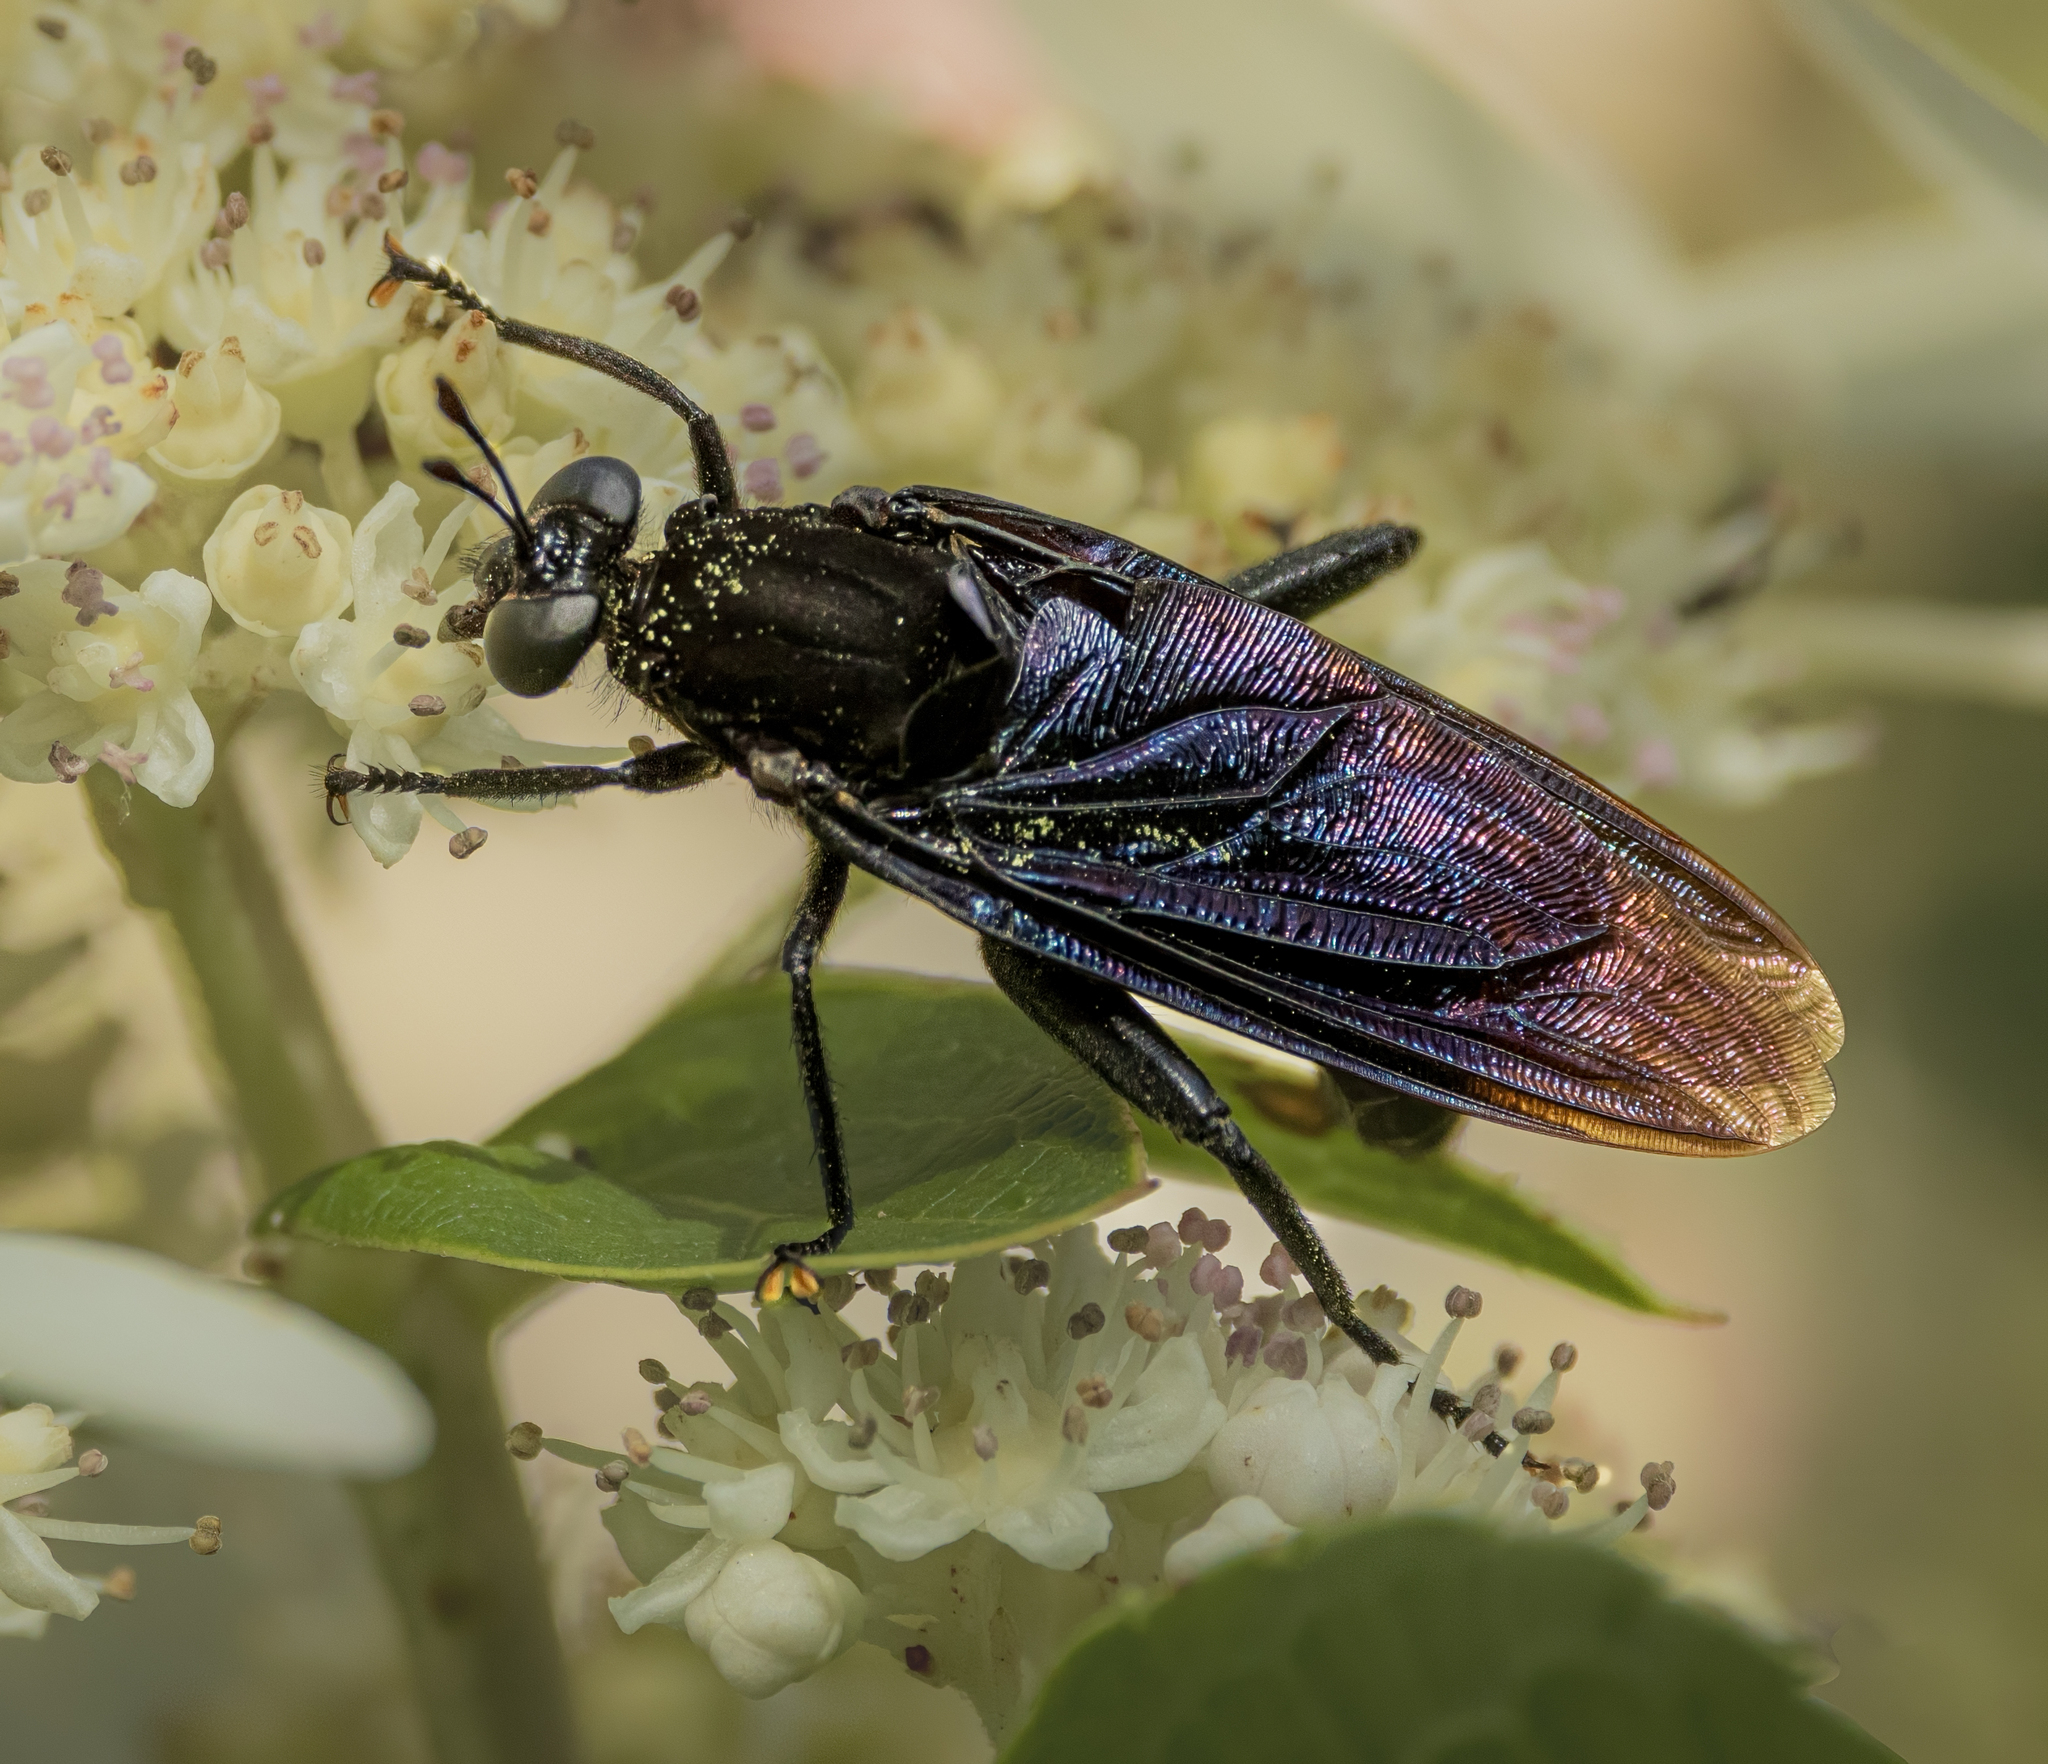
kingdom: Animalia
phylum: Arthropoda
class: Insecta
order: Diptera
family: Mydidae
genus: Mydas
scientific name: Mydas clavatus
